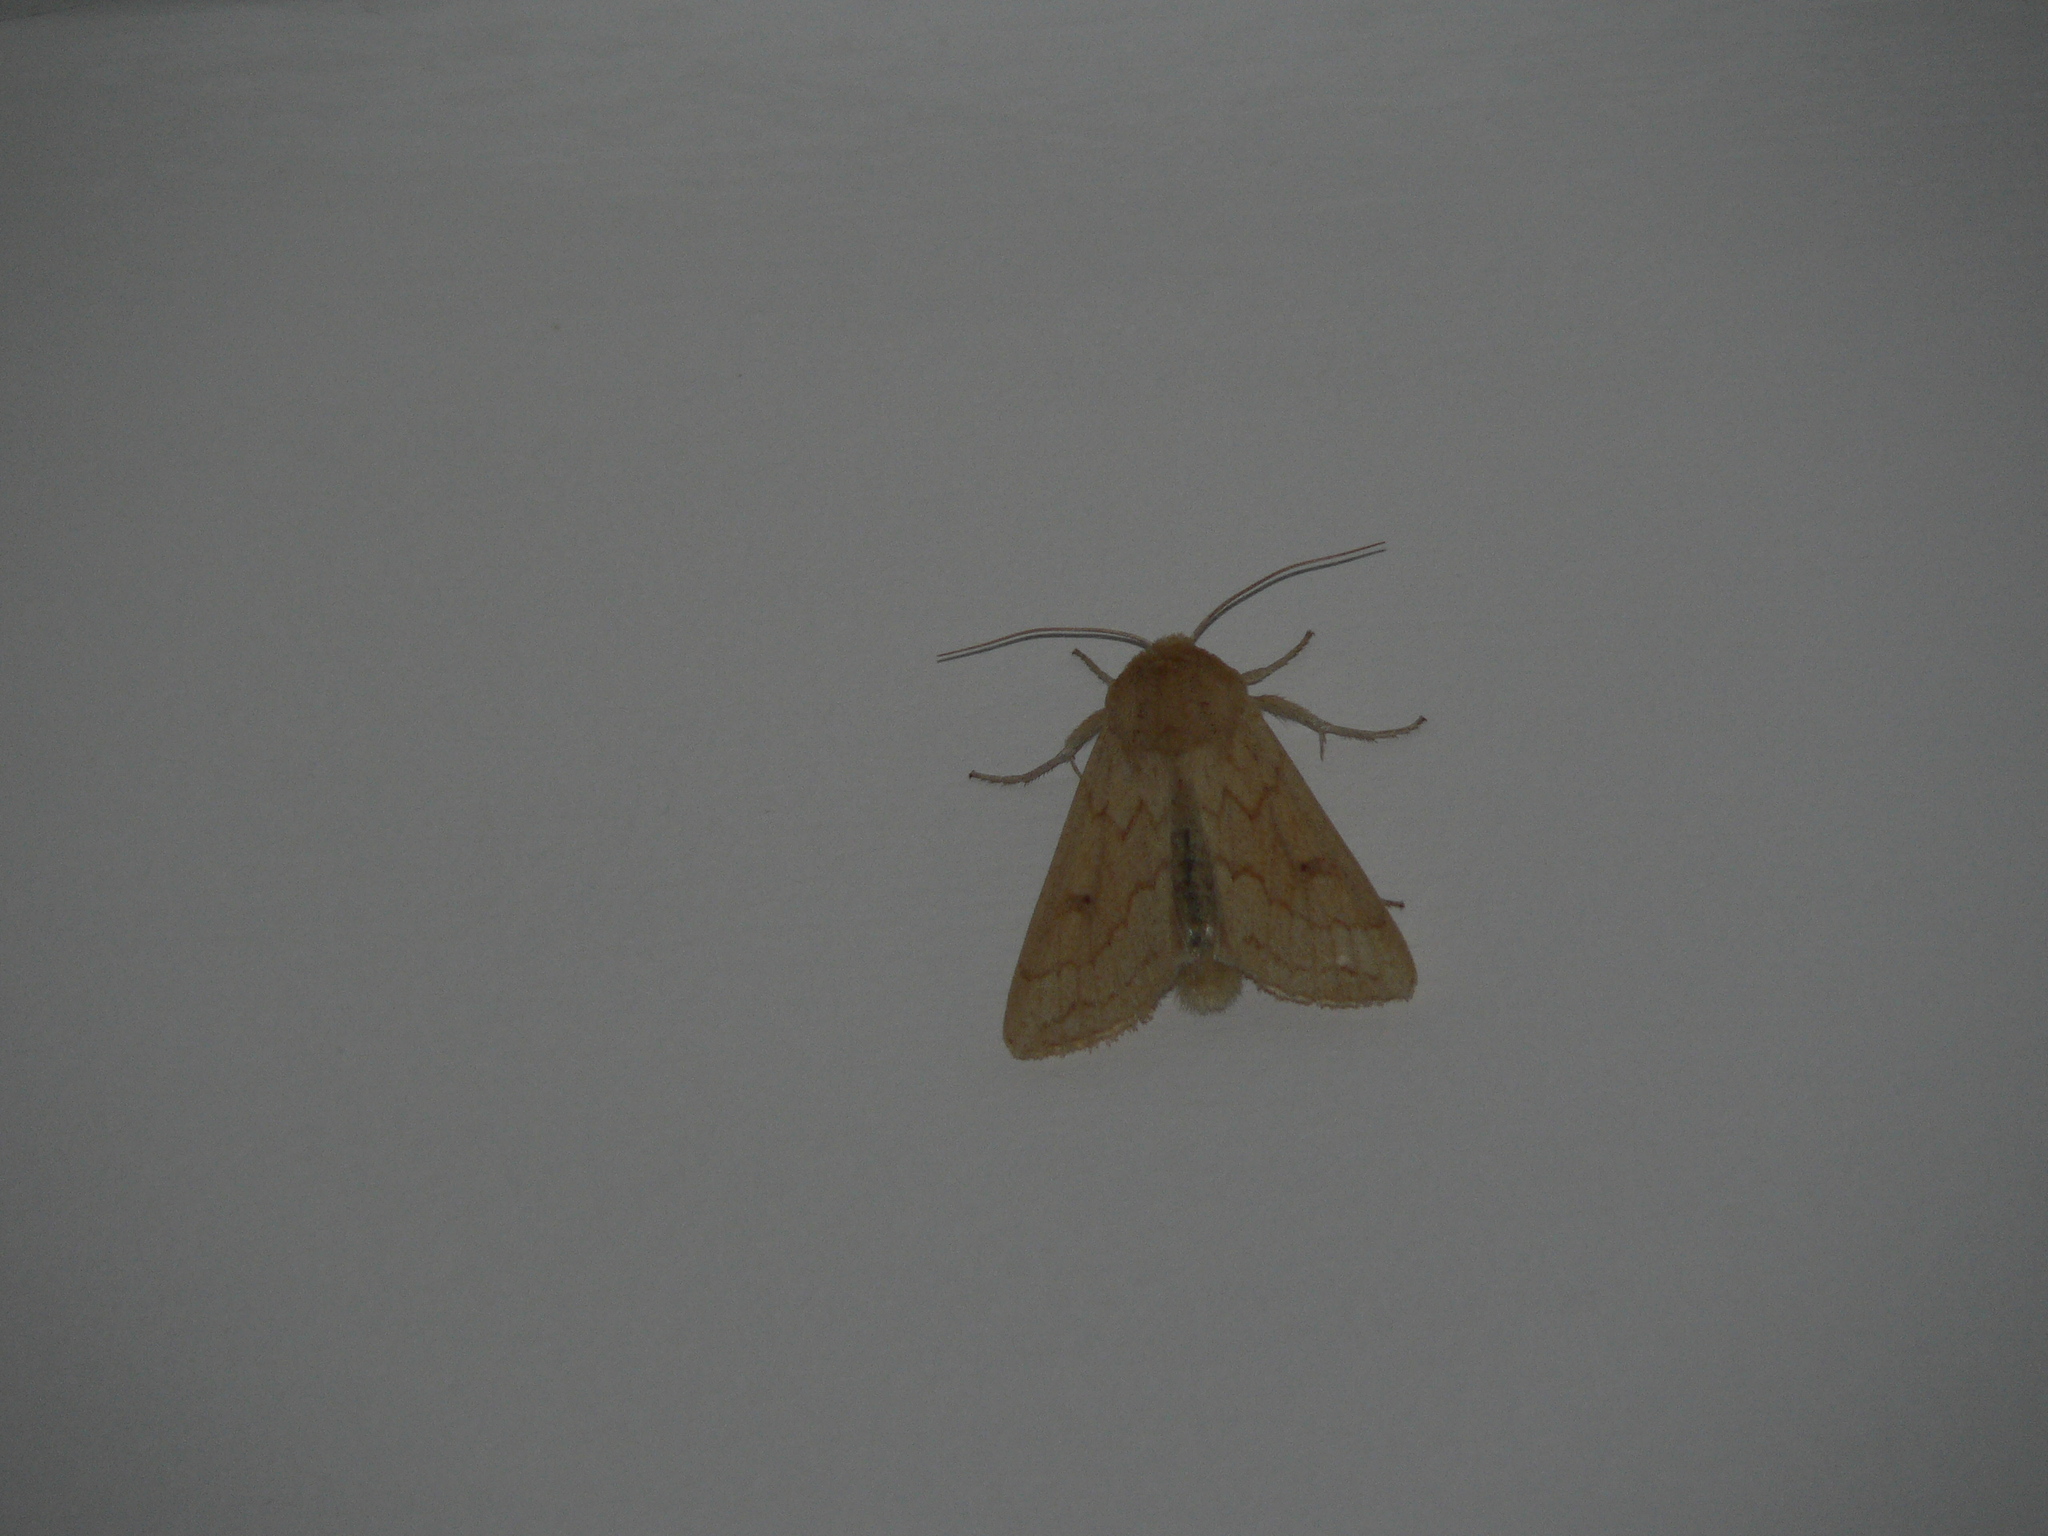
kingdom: Animalia
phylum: Arthropoda
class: Insecta
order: Lepidoptera
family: Noctuidae
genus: Mythimna
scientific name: Mythimna vitellina
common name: Delicate
